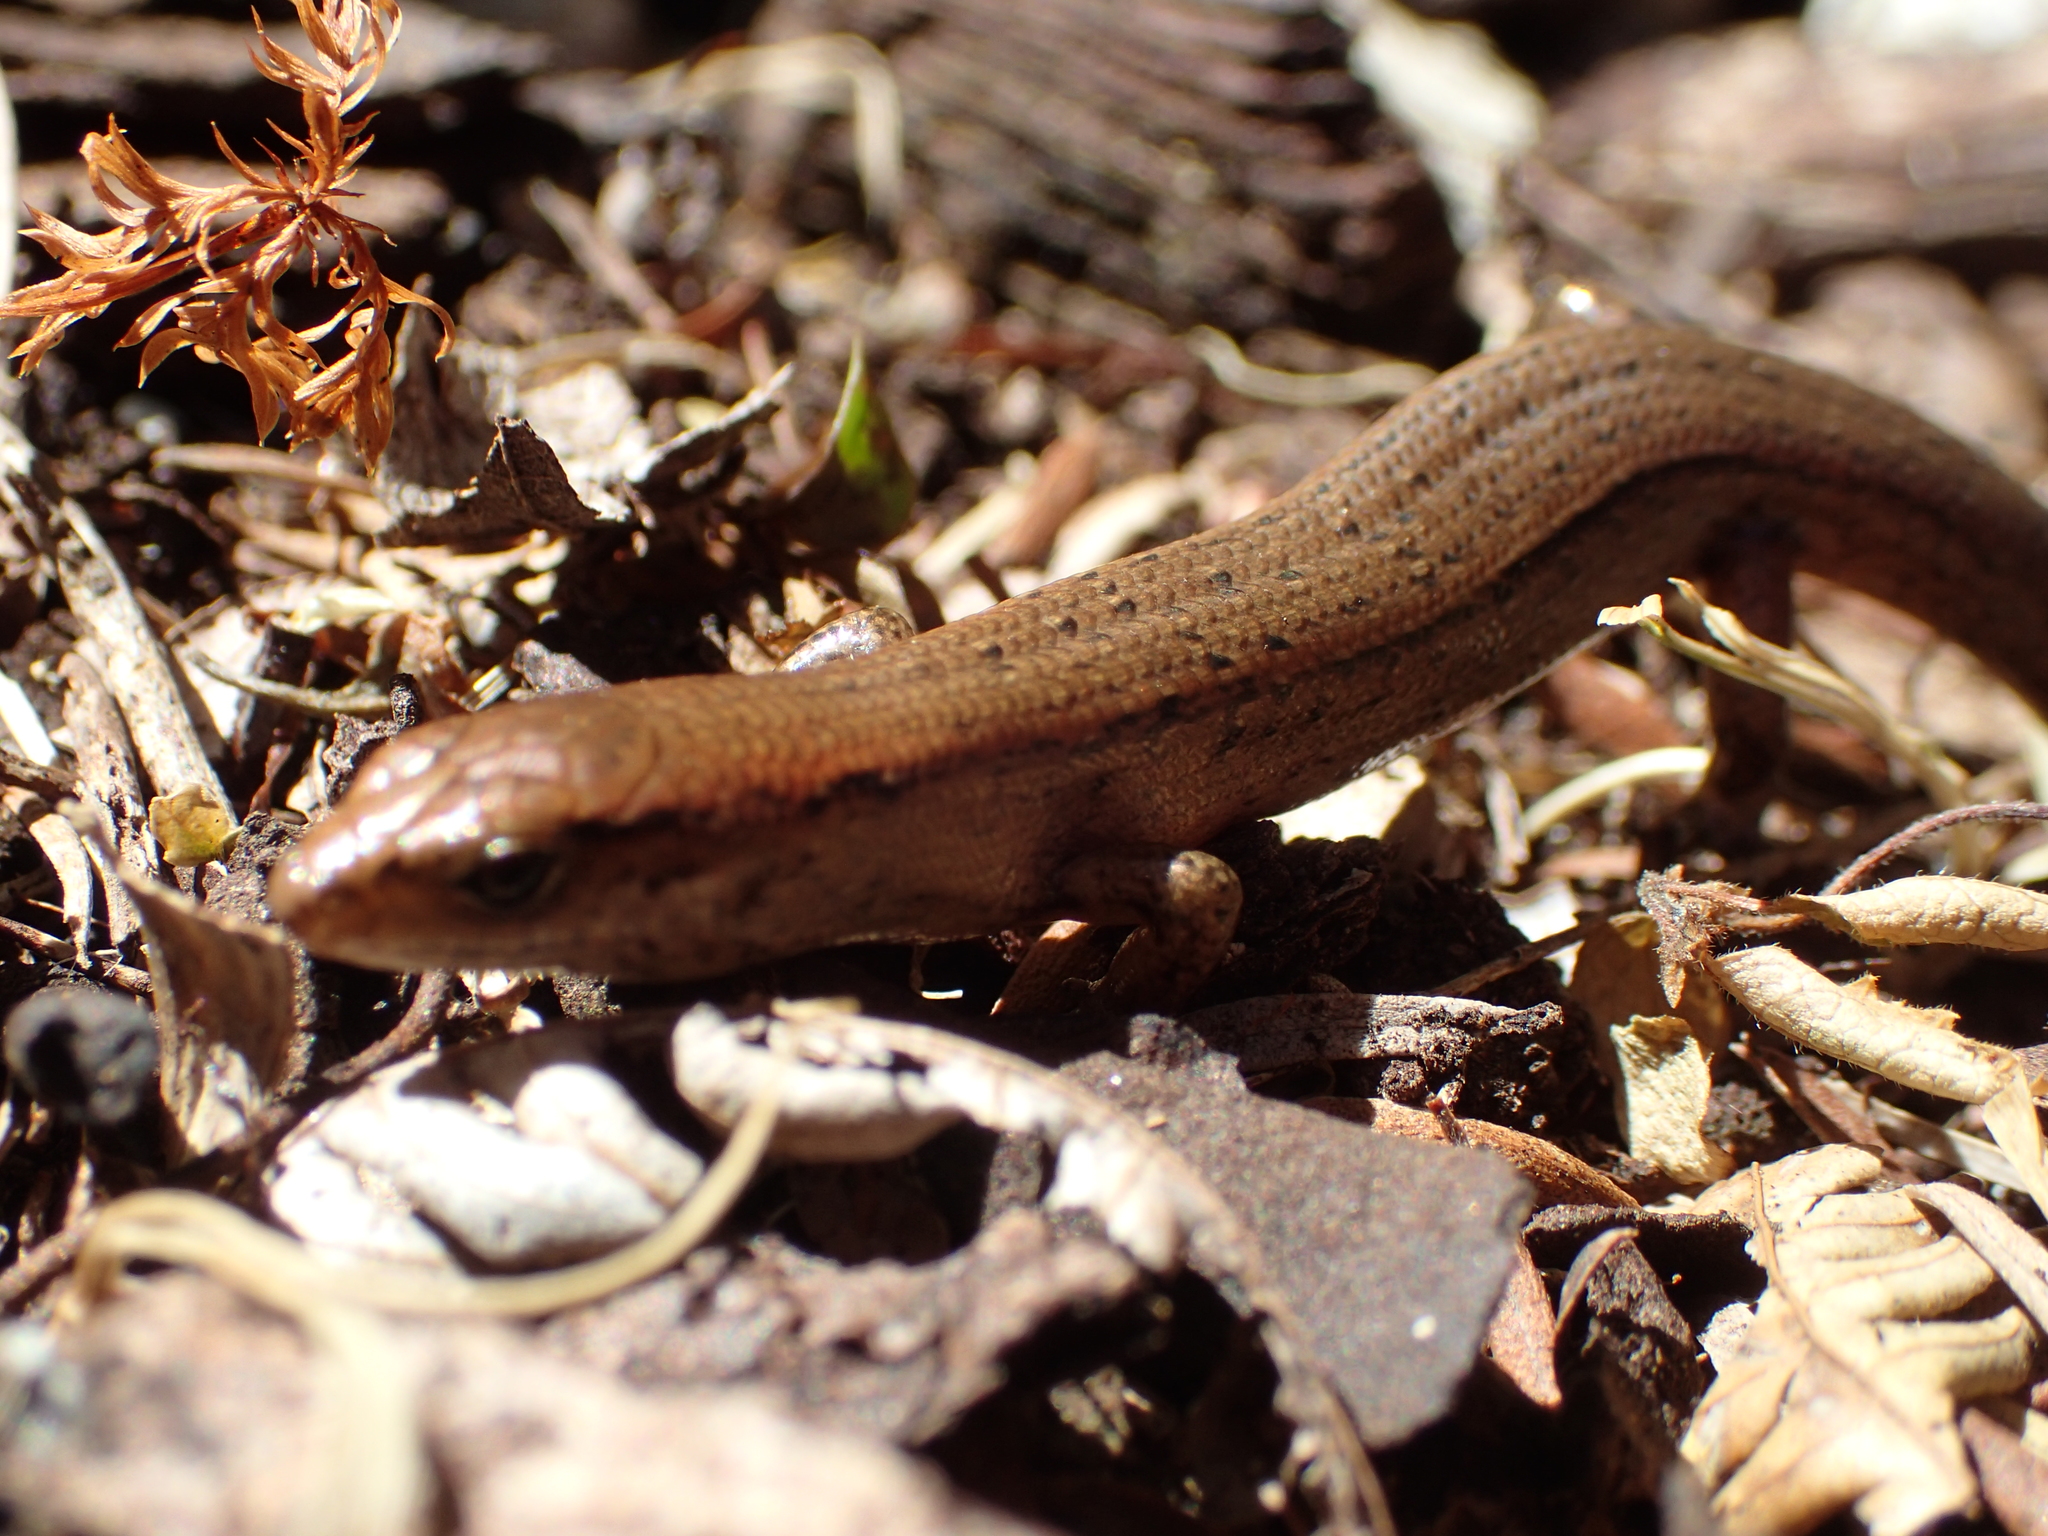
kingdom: Animalia
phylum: Chordata
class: Squamata
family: Scincidae
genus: Oligosoma
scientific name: Oligosoma aeneum
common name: Copper skink
